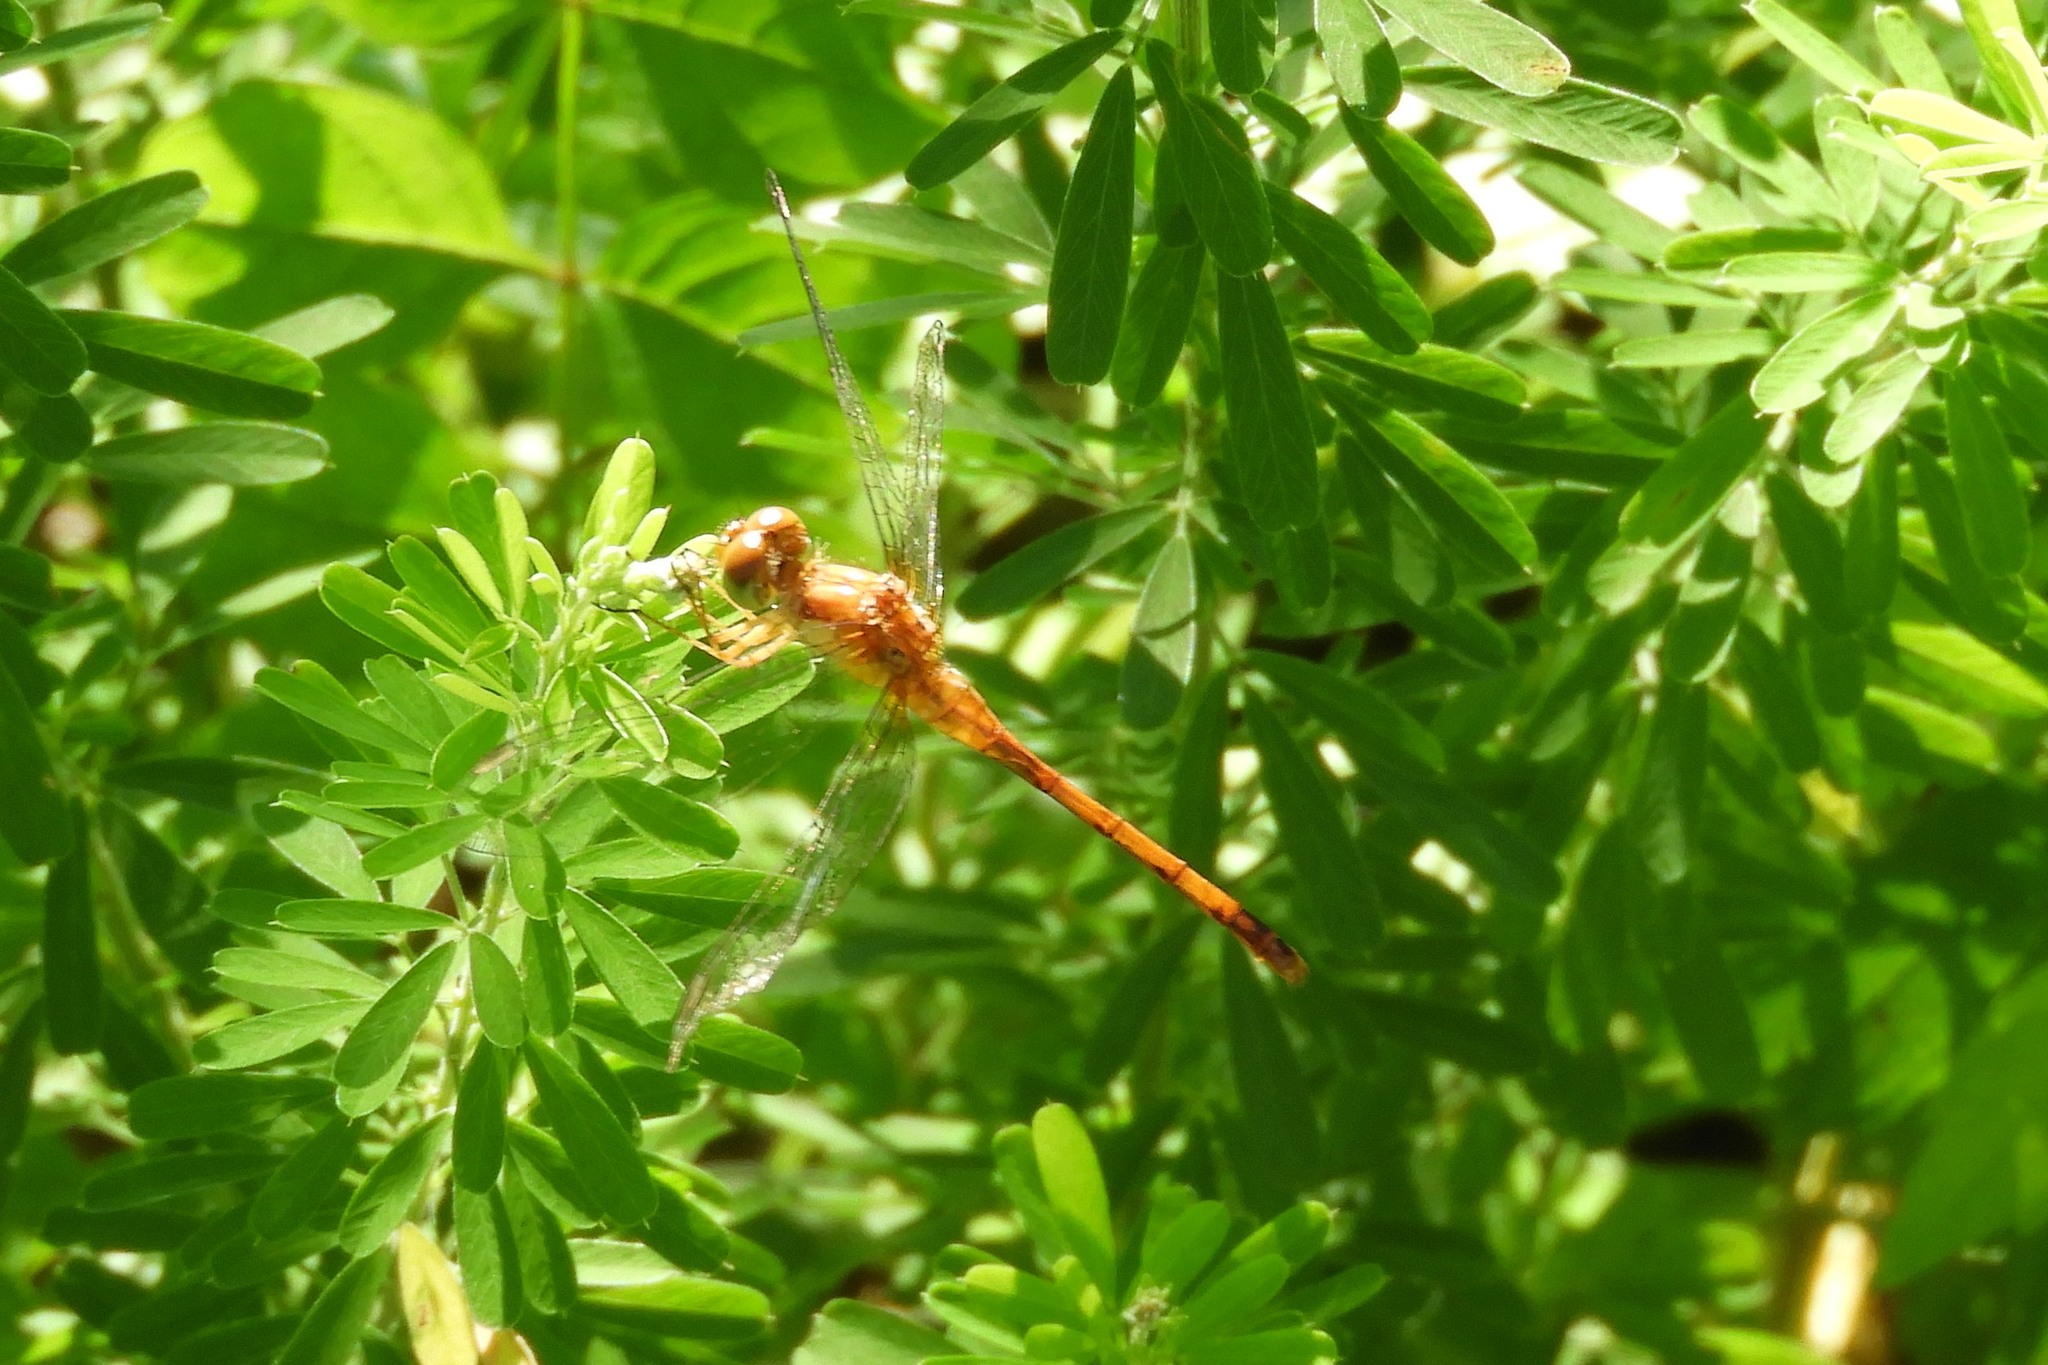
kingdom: Animalia
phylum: Arthropoda
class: Insecta
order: Odonata
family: Libellulidae
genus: Sympetrum
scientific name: Sympetrum vicinum
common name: Autumn meadowhawk
